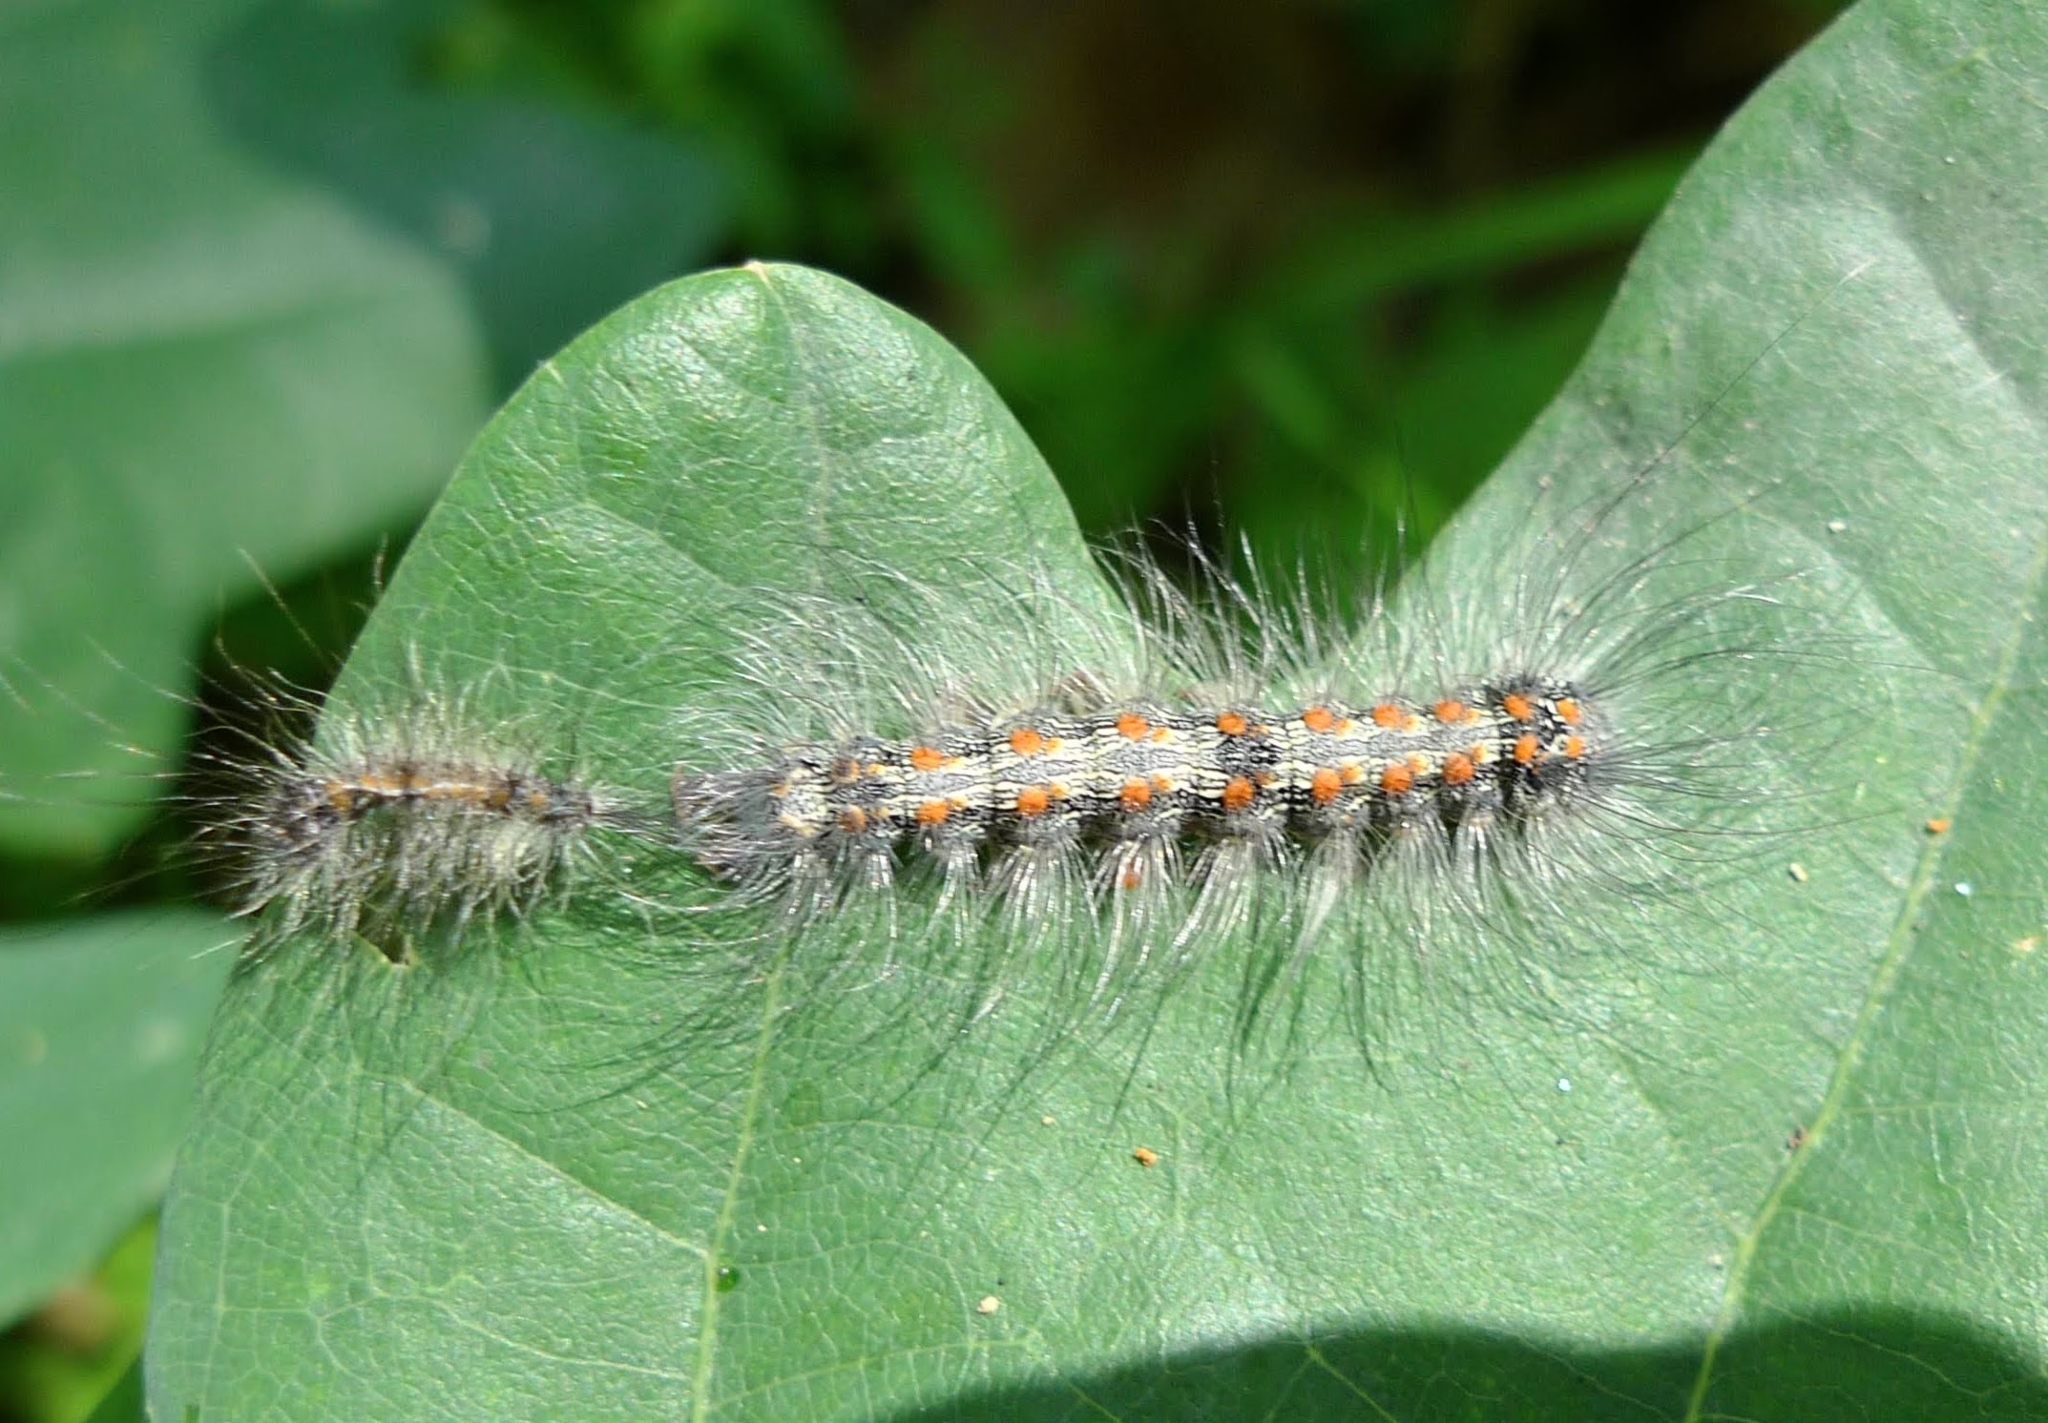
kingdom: Animalia
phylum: Arthropoda
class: Insecta
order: Lepidoptera
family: Erebidae
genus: Lithosia
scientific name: Lithosia quadra
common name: Four-spotted footman
